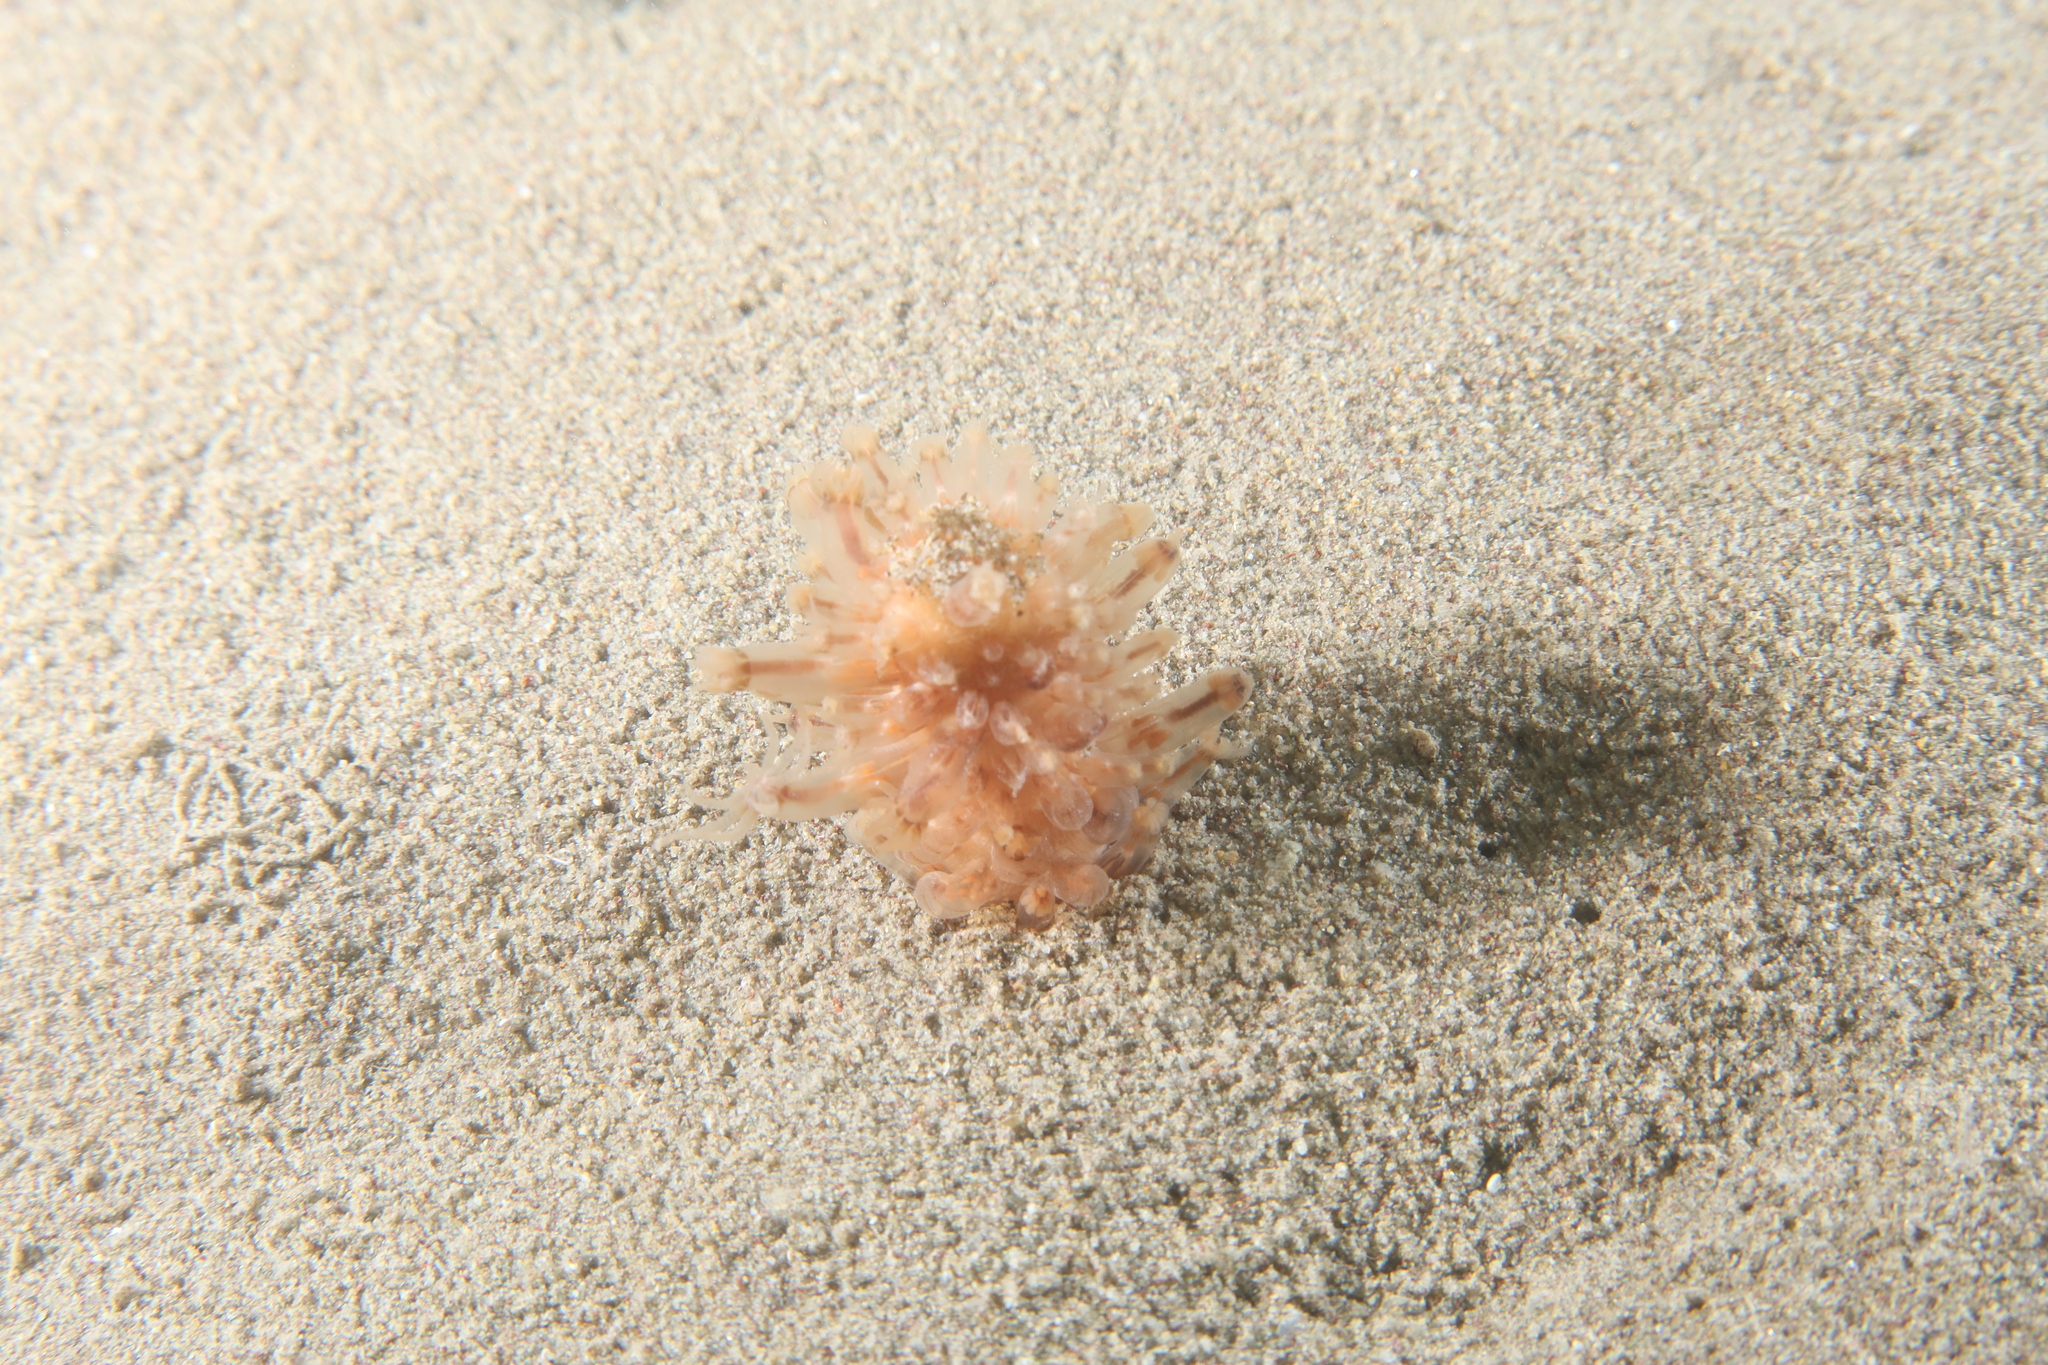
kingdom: Animalia
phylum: Cnidaria
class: Anthozoa
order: Scleralcyonacea
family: Veretillidae
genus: Cavernularia
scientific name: Cavernularia pusilla
